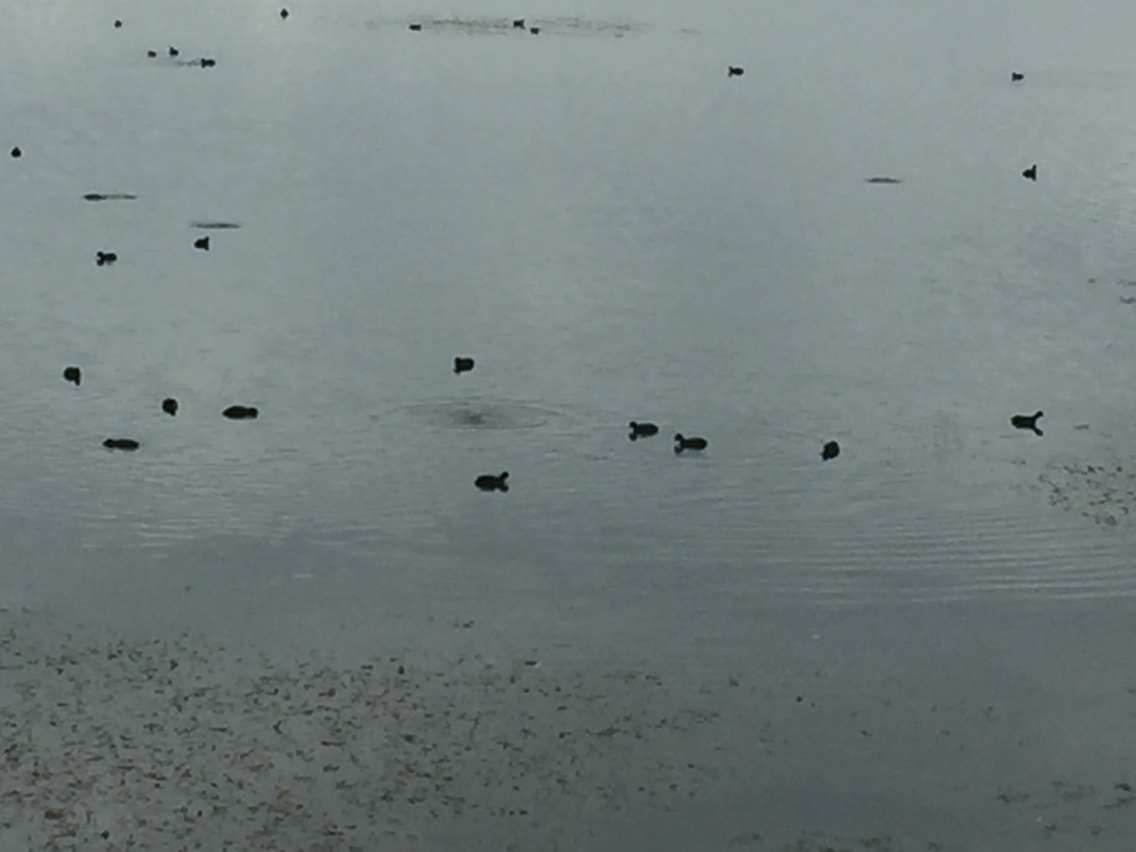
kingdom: Animalia
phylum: Chordata
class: Aves
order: Gruiformes
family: Rallidae
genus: Fulica
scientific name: Fulica atra
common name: Eurasian coot
